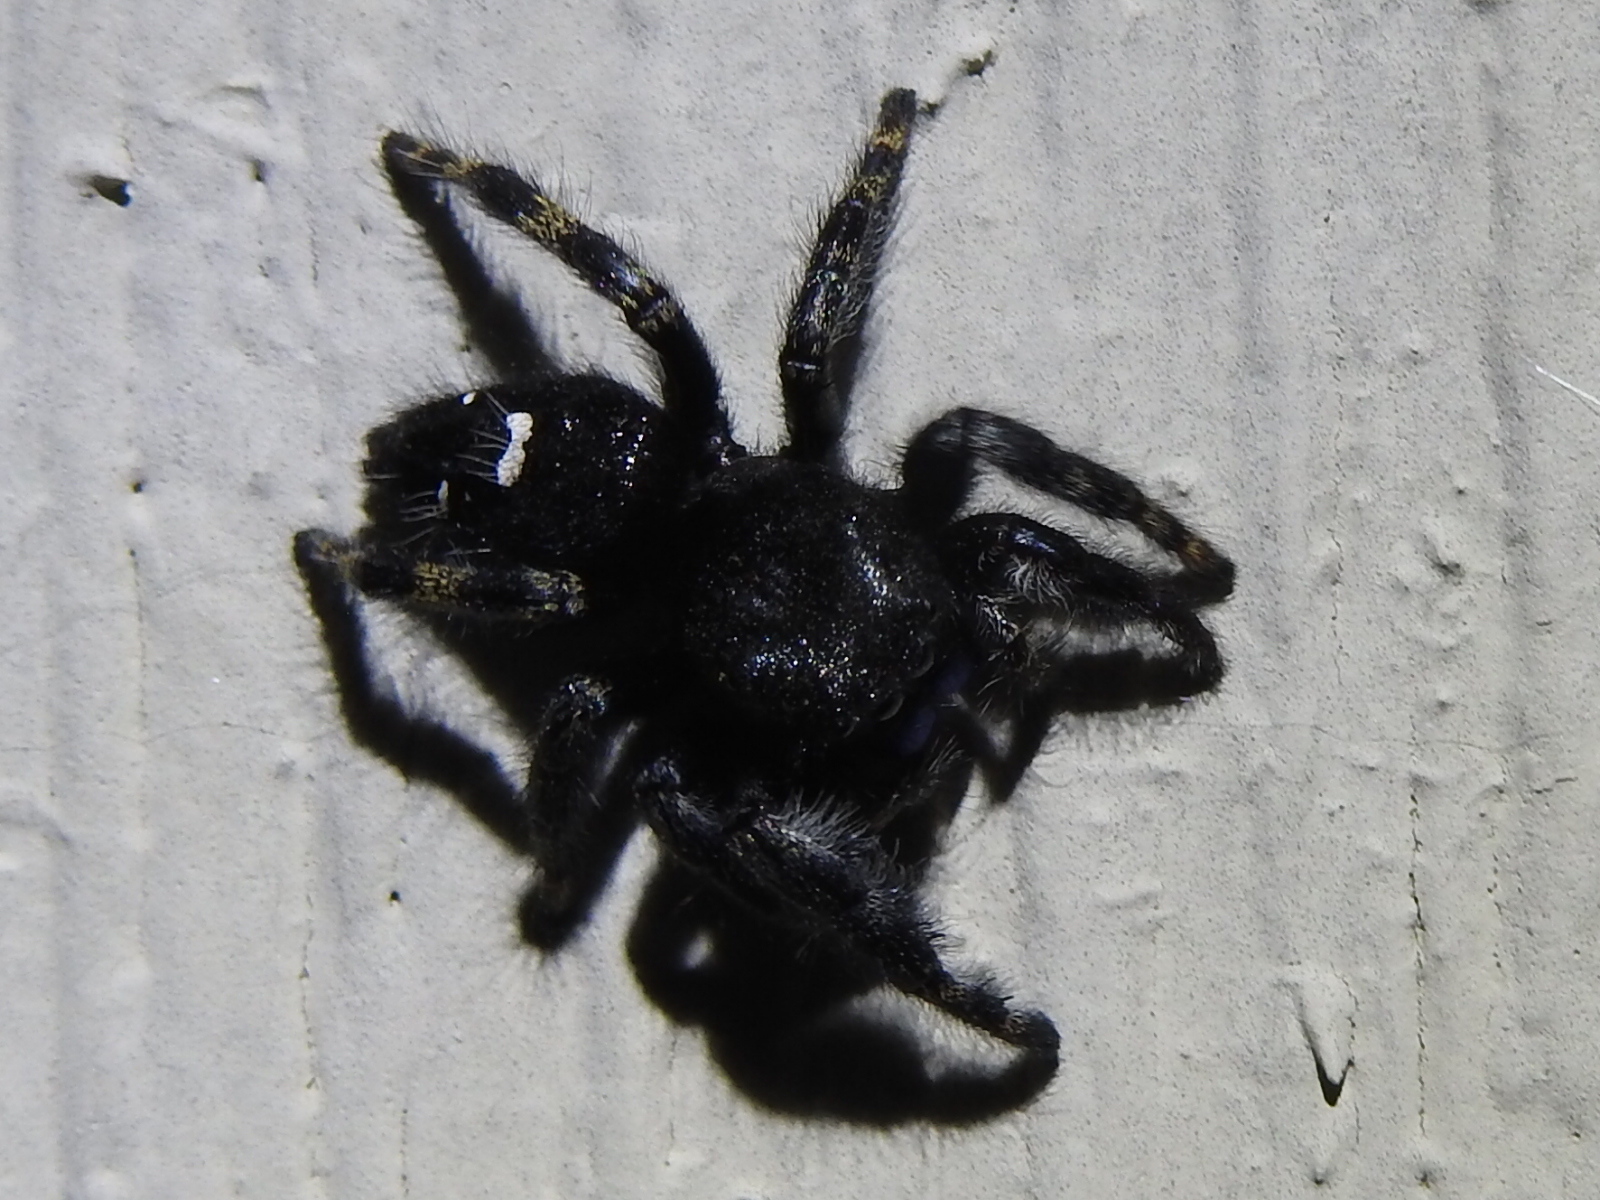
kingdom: Animalia
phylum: Arthropoda
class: Arachnida
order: Araneae
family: Salticidae
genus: Phidippus
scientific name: Phidippus audax
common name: Bold jumper
